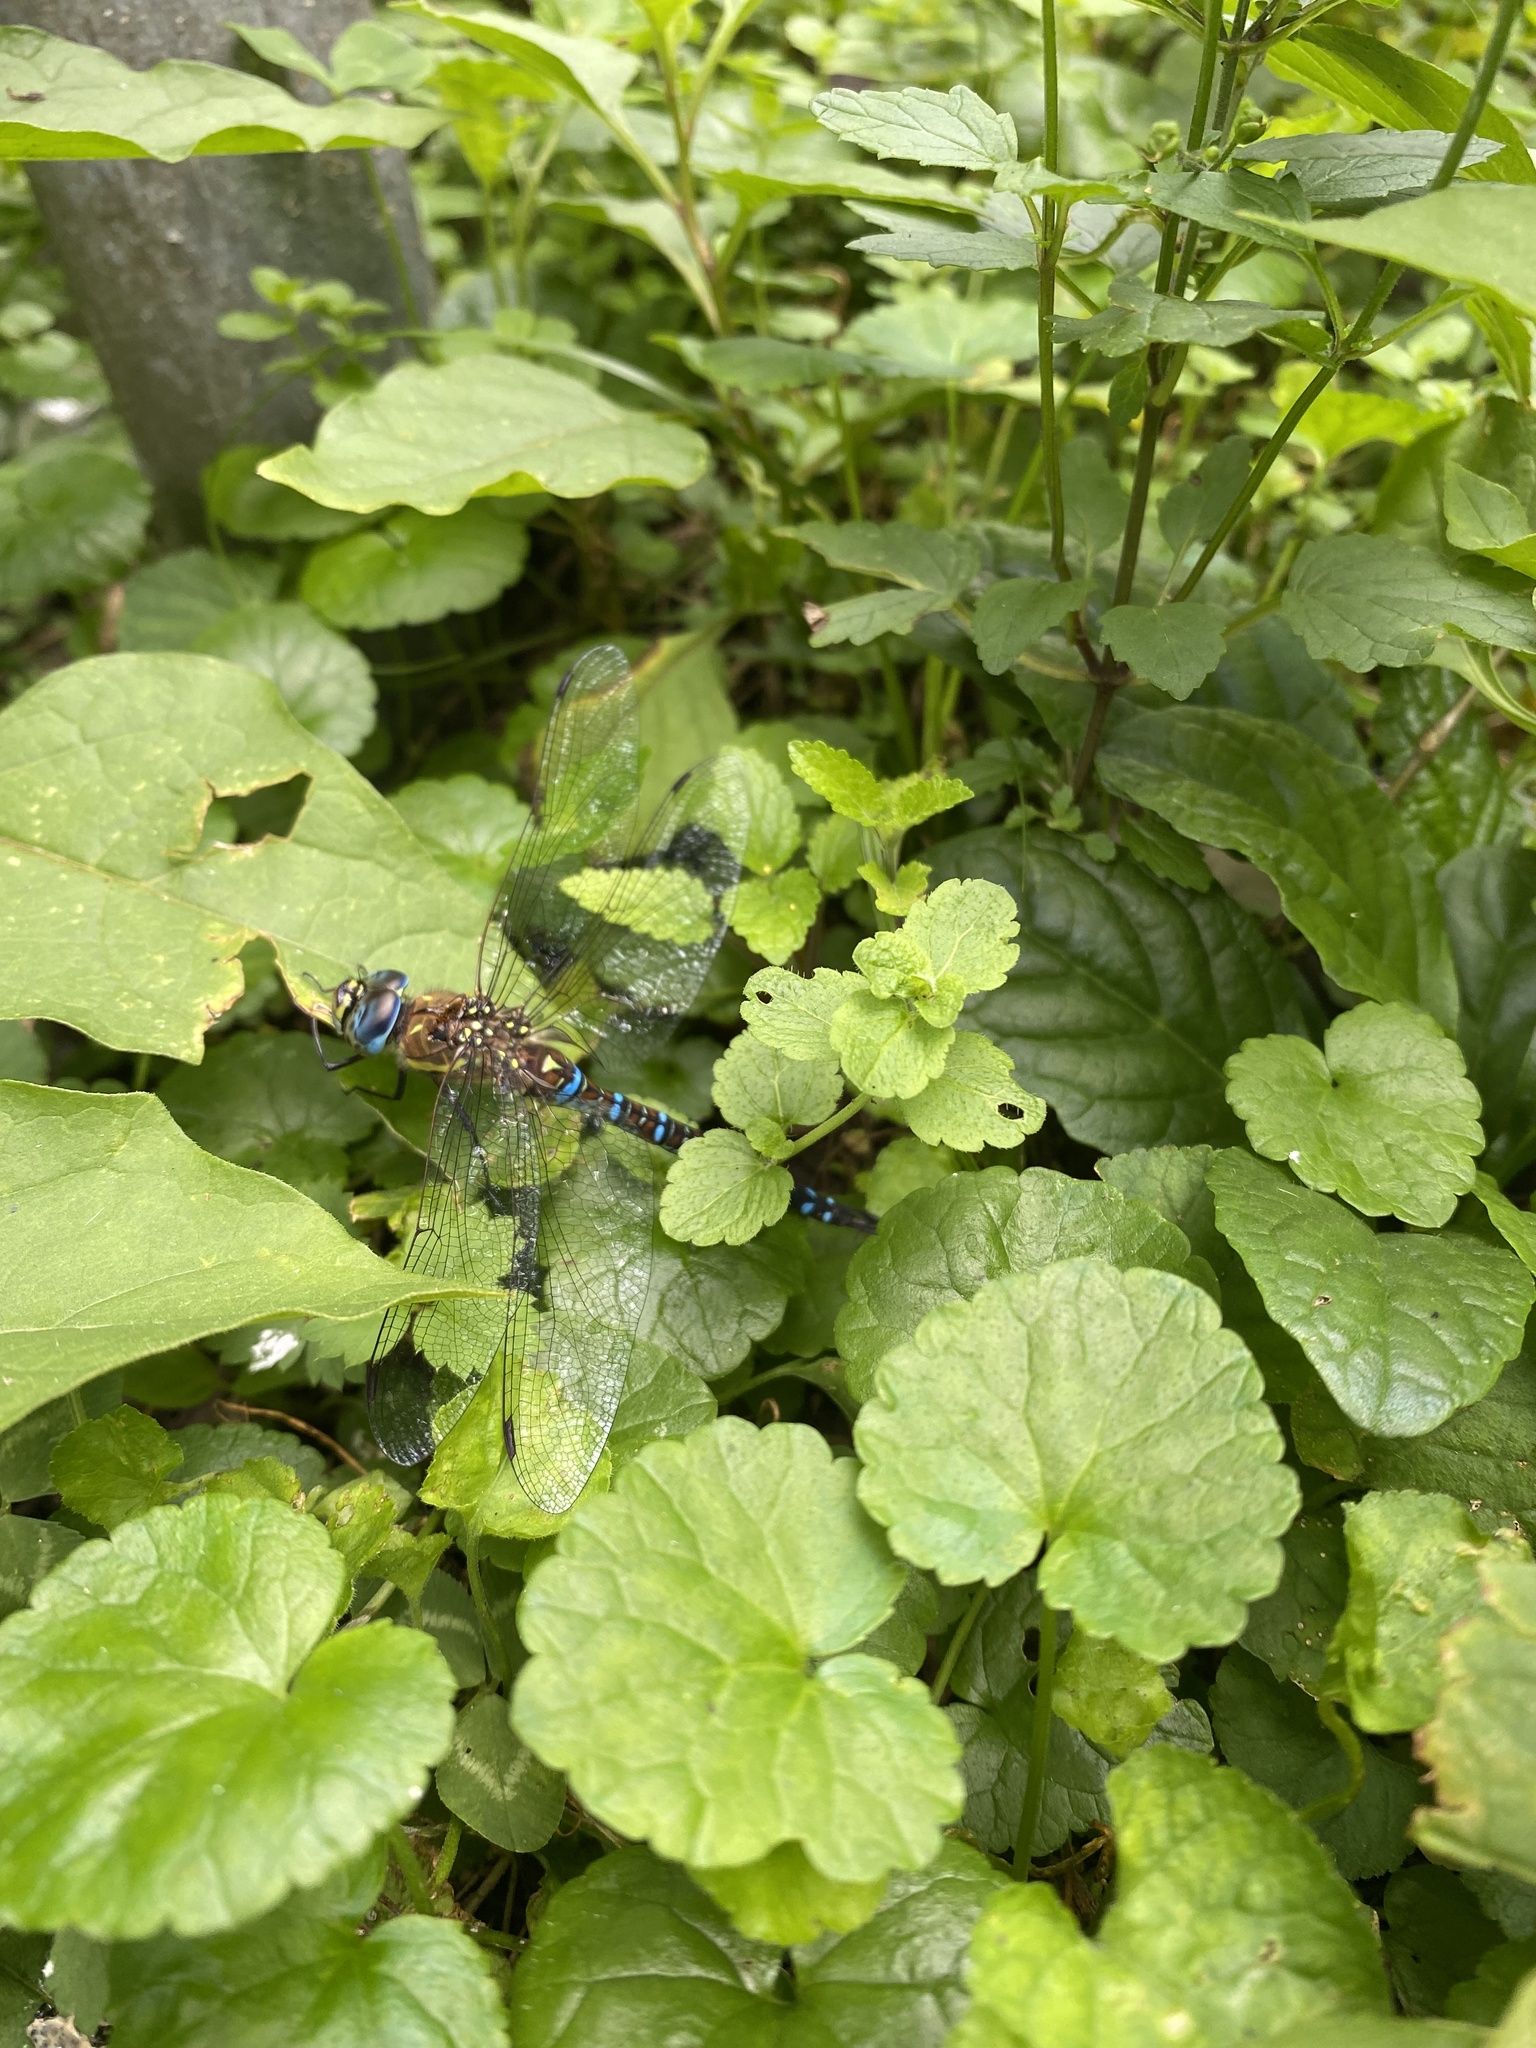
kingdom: Animalia
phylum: Arthropoda
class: Insecta
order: Odonata
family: Aeshnidae
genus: Aeshna
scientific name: Aeshna mixta
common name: Migrant hawker
